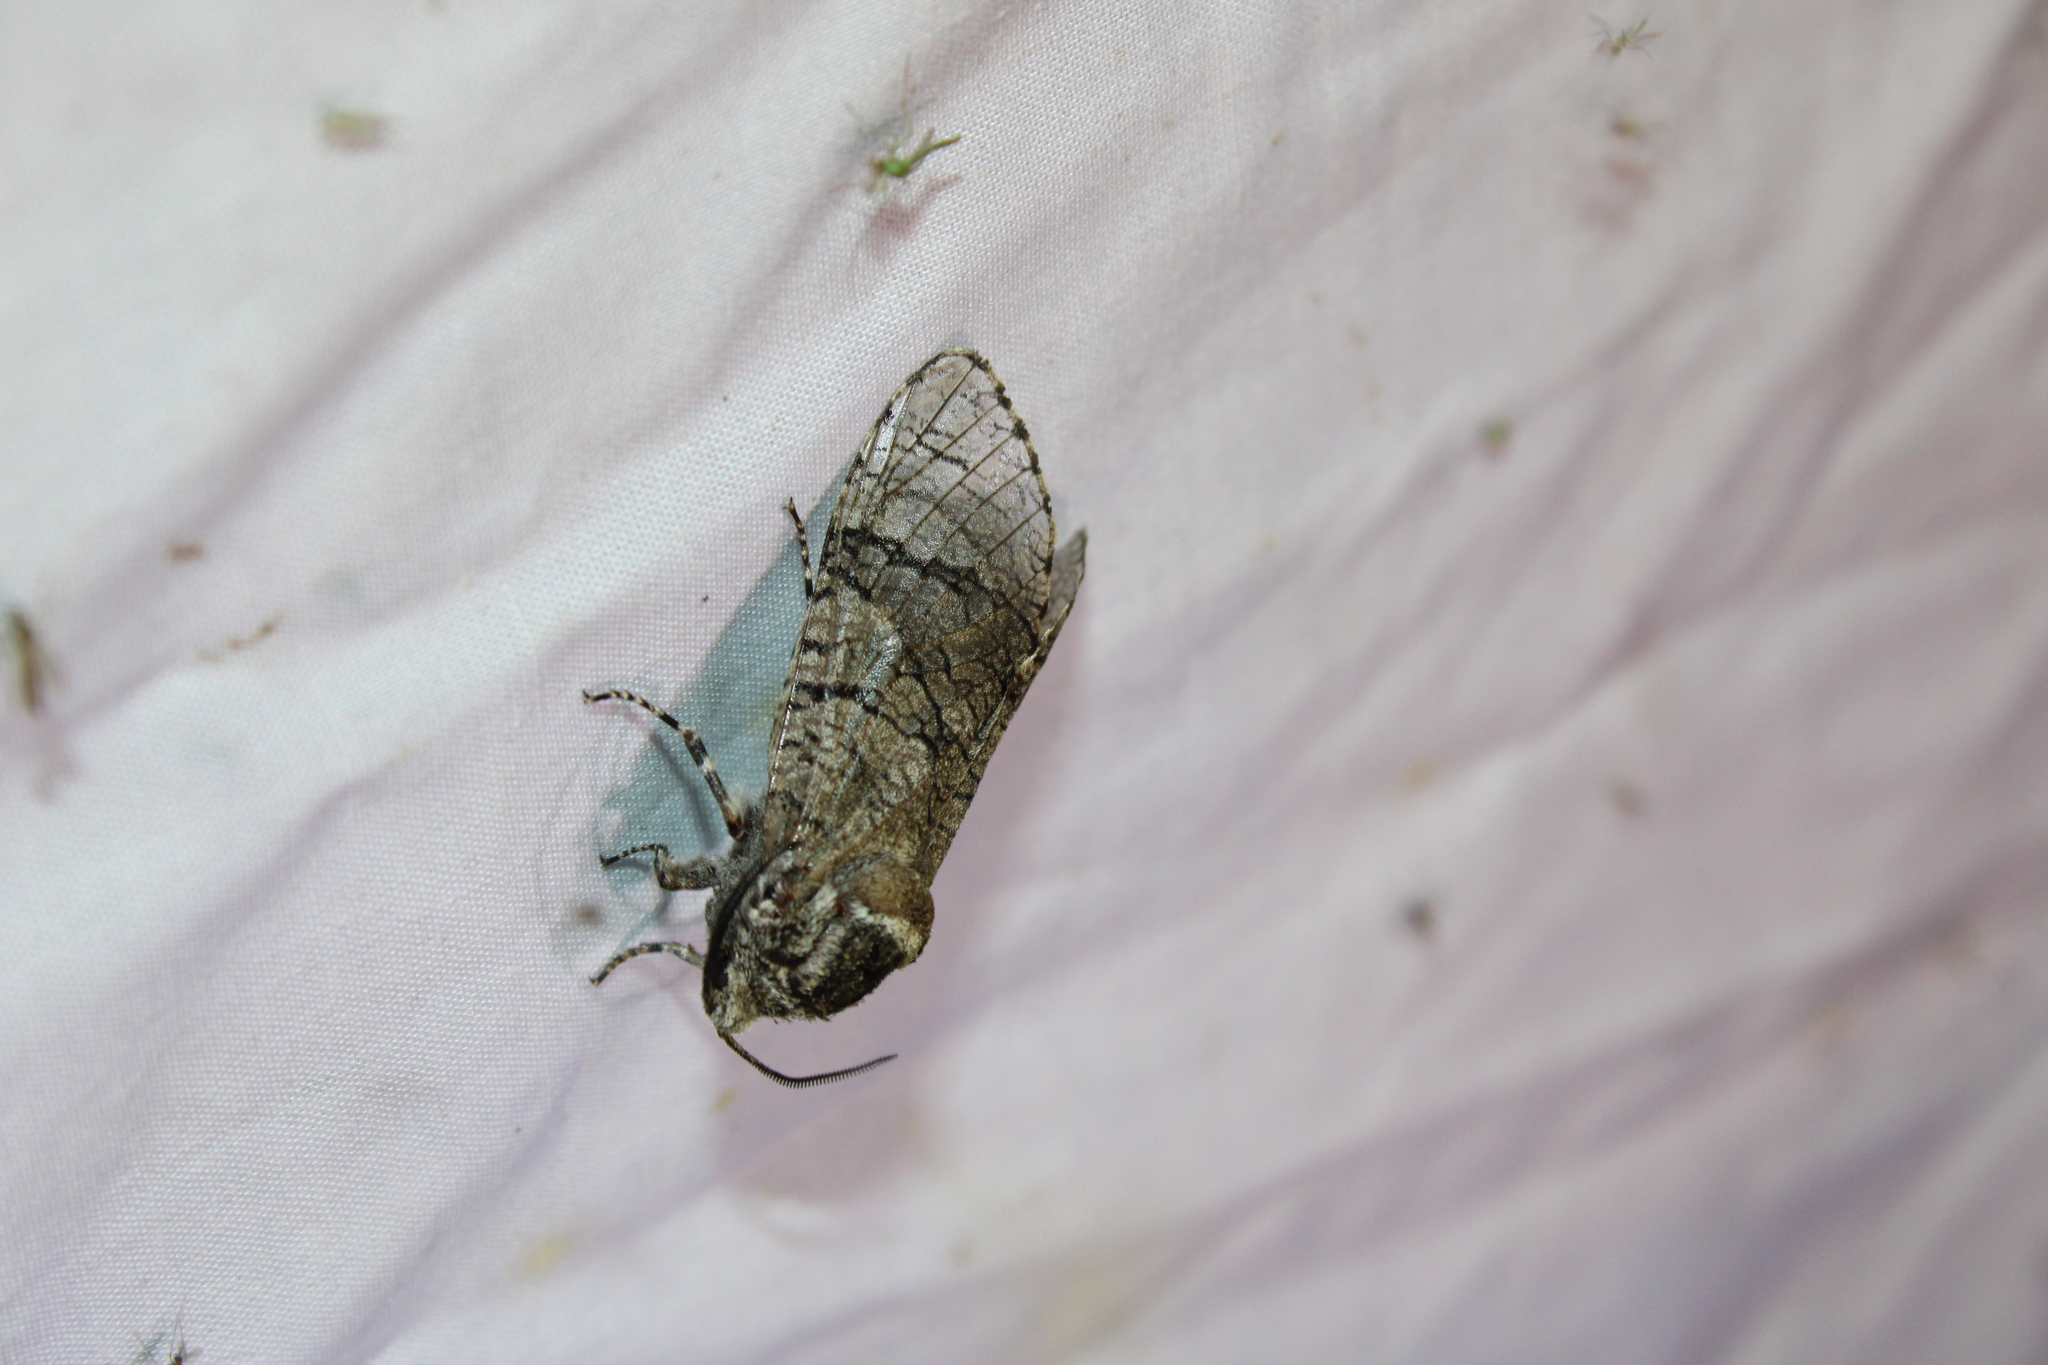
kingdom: Animalia
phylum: Arthropoda
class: Insecta
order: Lepidoptera
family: Cossidae
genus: Prionoxystus
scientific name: Prionoxystus macmurtrei
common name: Little carpenterworm
